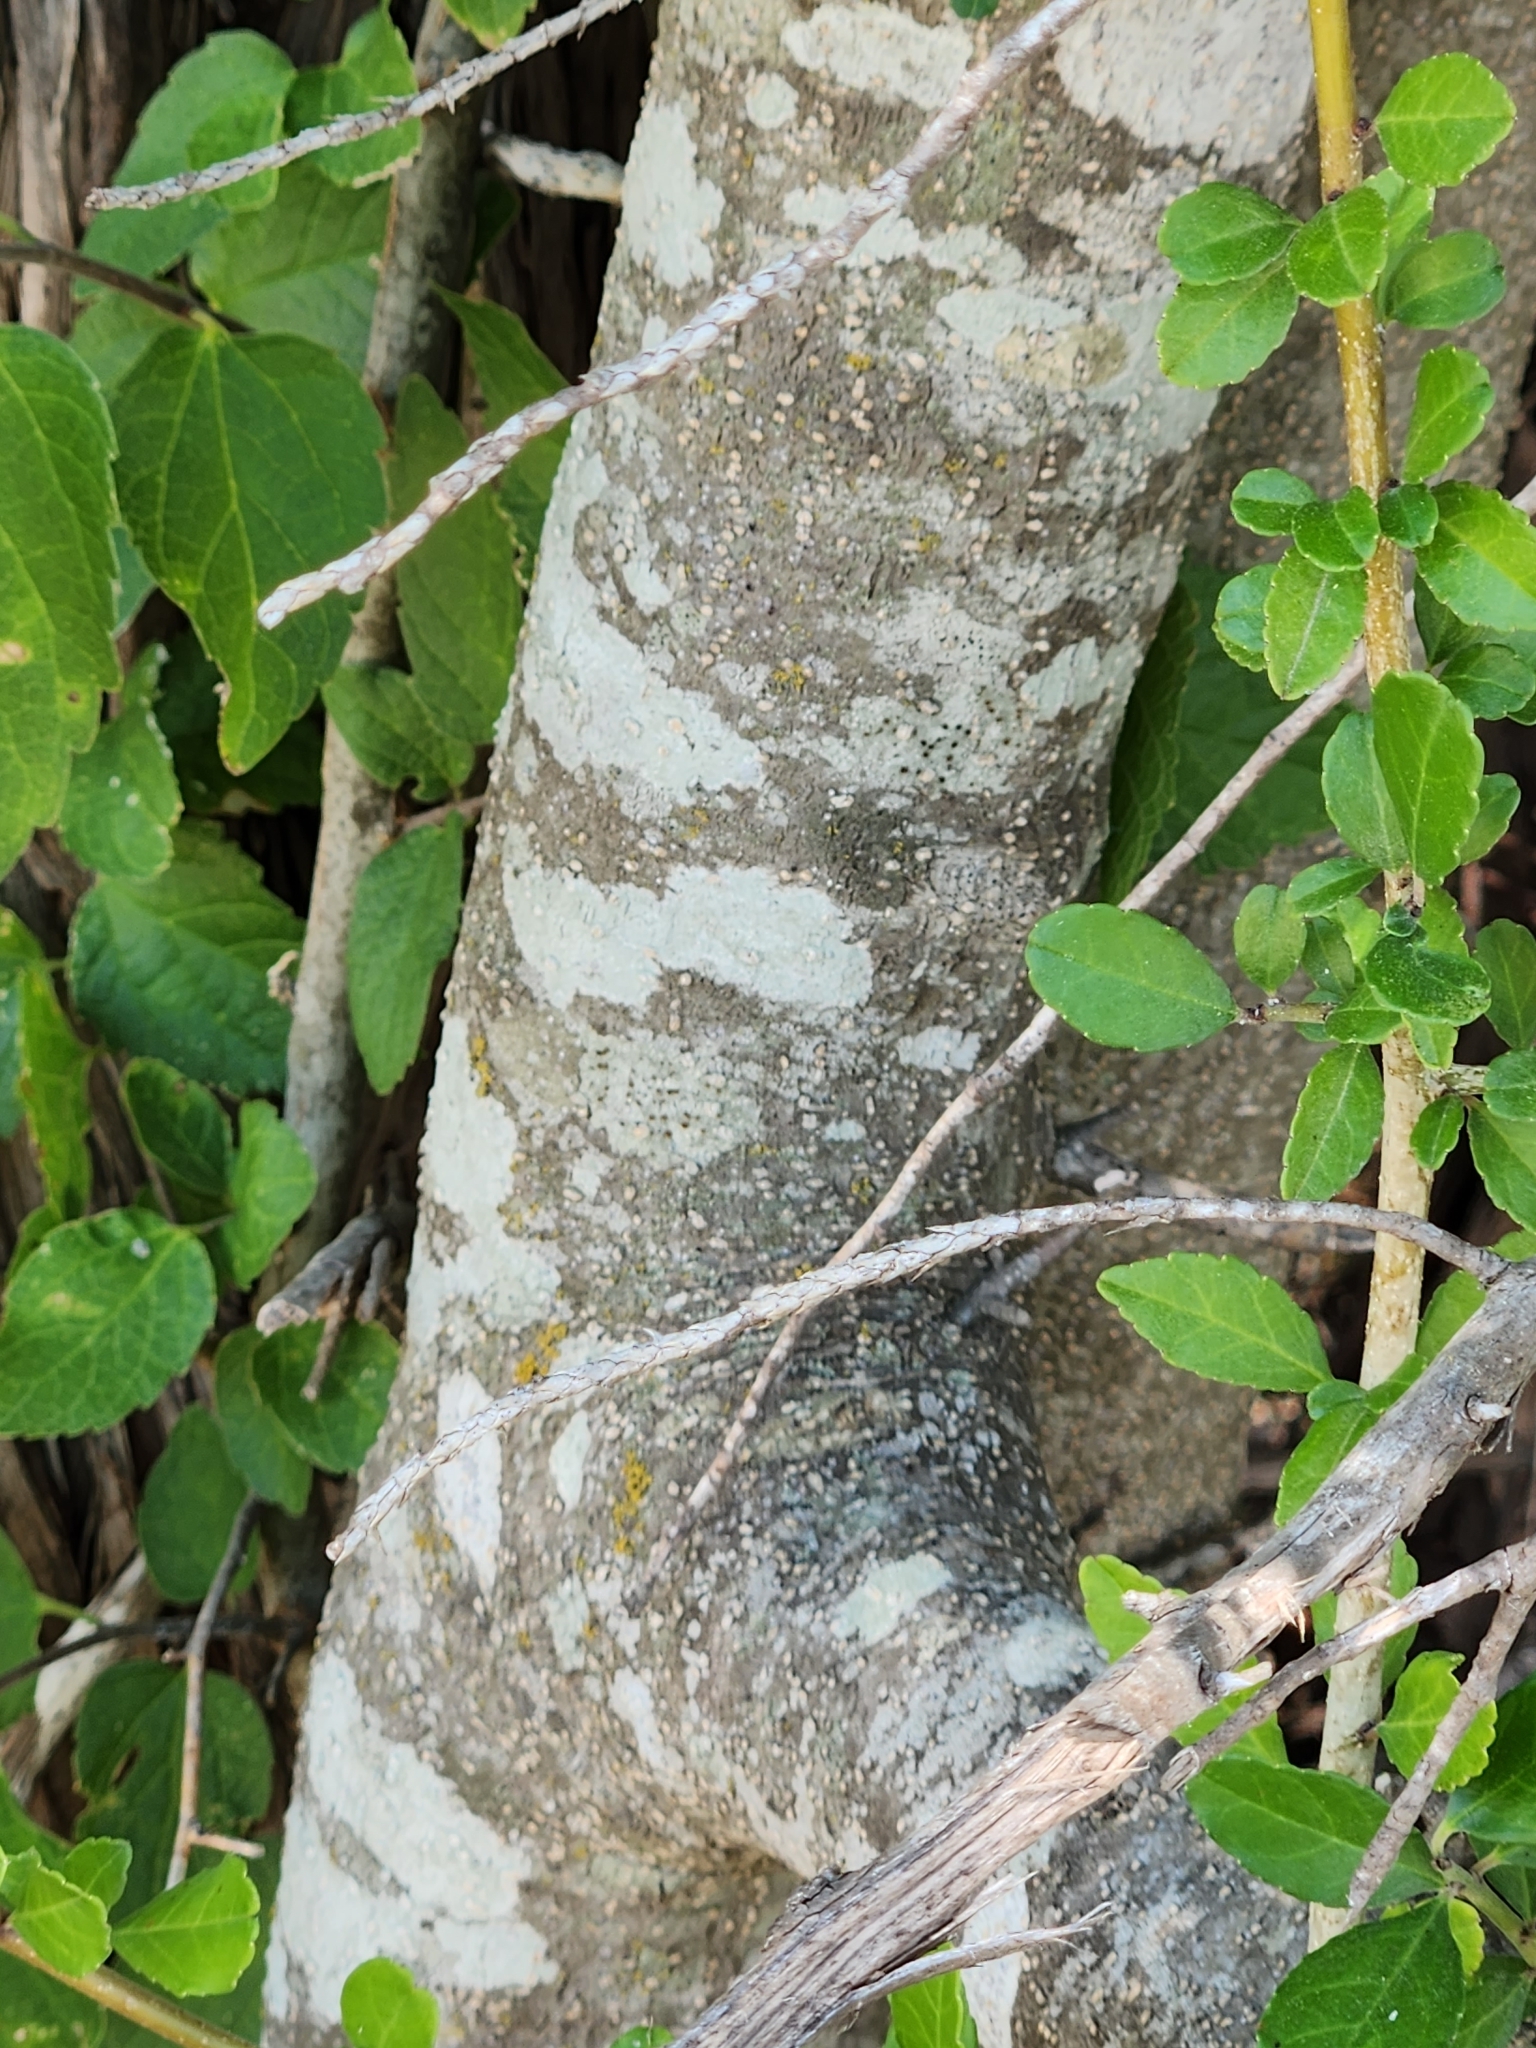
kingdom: Plantae
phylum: Tracheophyta
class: Magnoliopsida
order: Aquifoliales
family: Aquifoliaceae
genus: Ilex
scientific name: Ilex decidua
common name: Possum-haw
